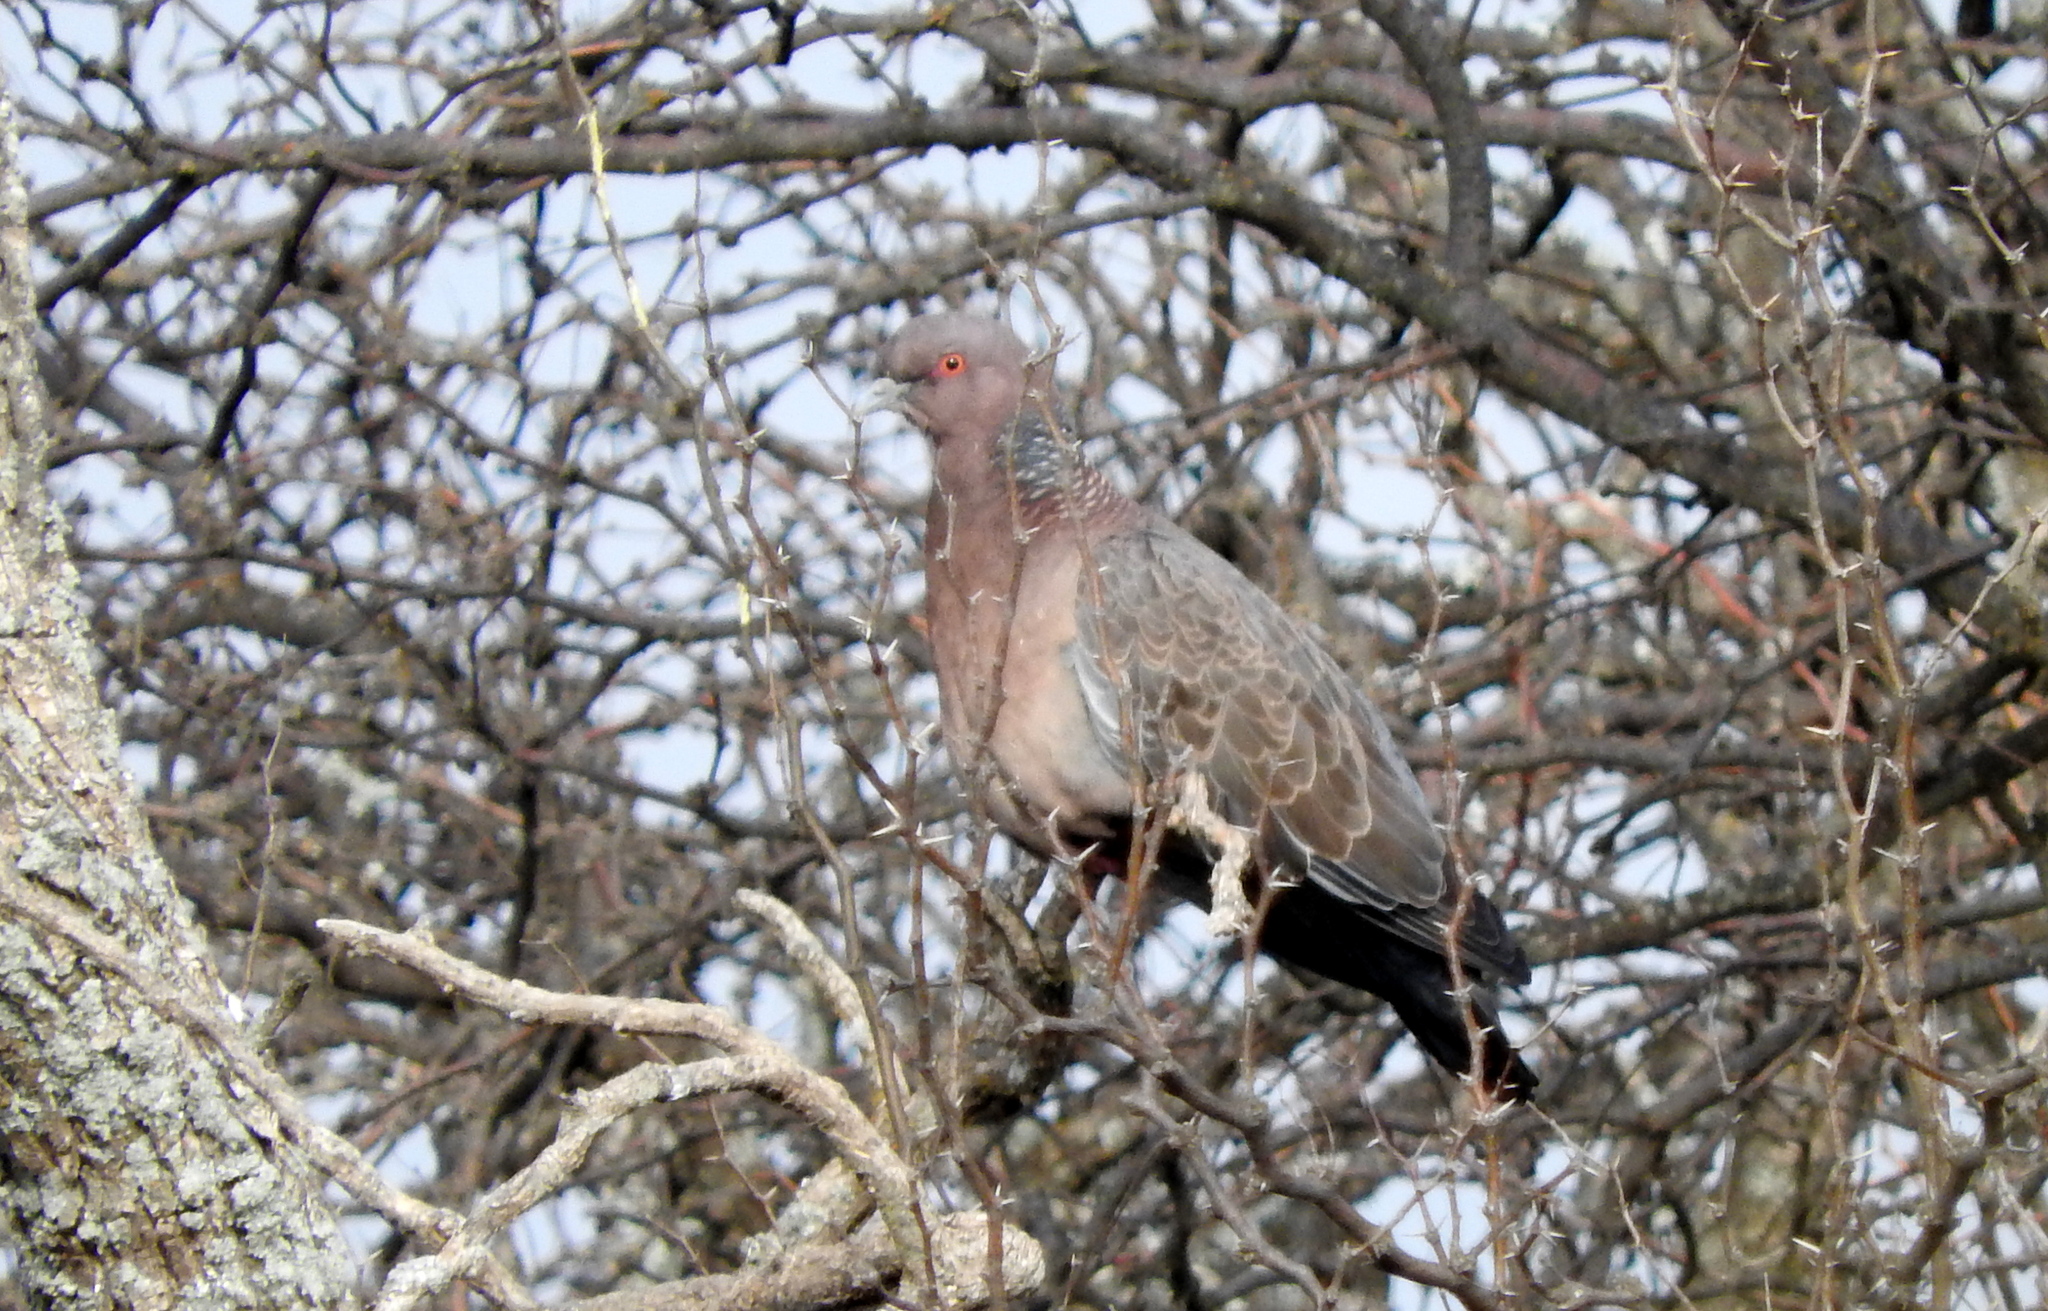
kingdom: Animalia
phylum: Chordata
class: Aves
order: Columbiformes
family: Columbidae
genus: Patagioenas
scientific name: Patagioenas picazuro
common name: Picazuro pigeon
